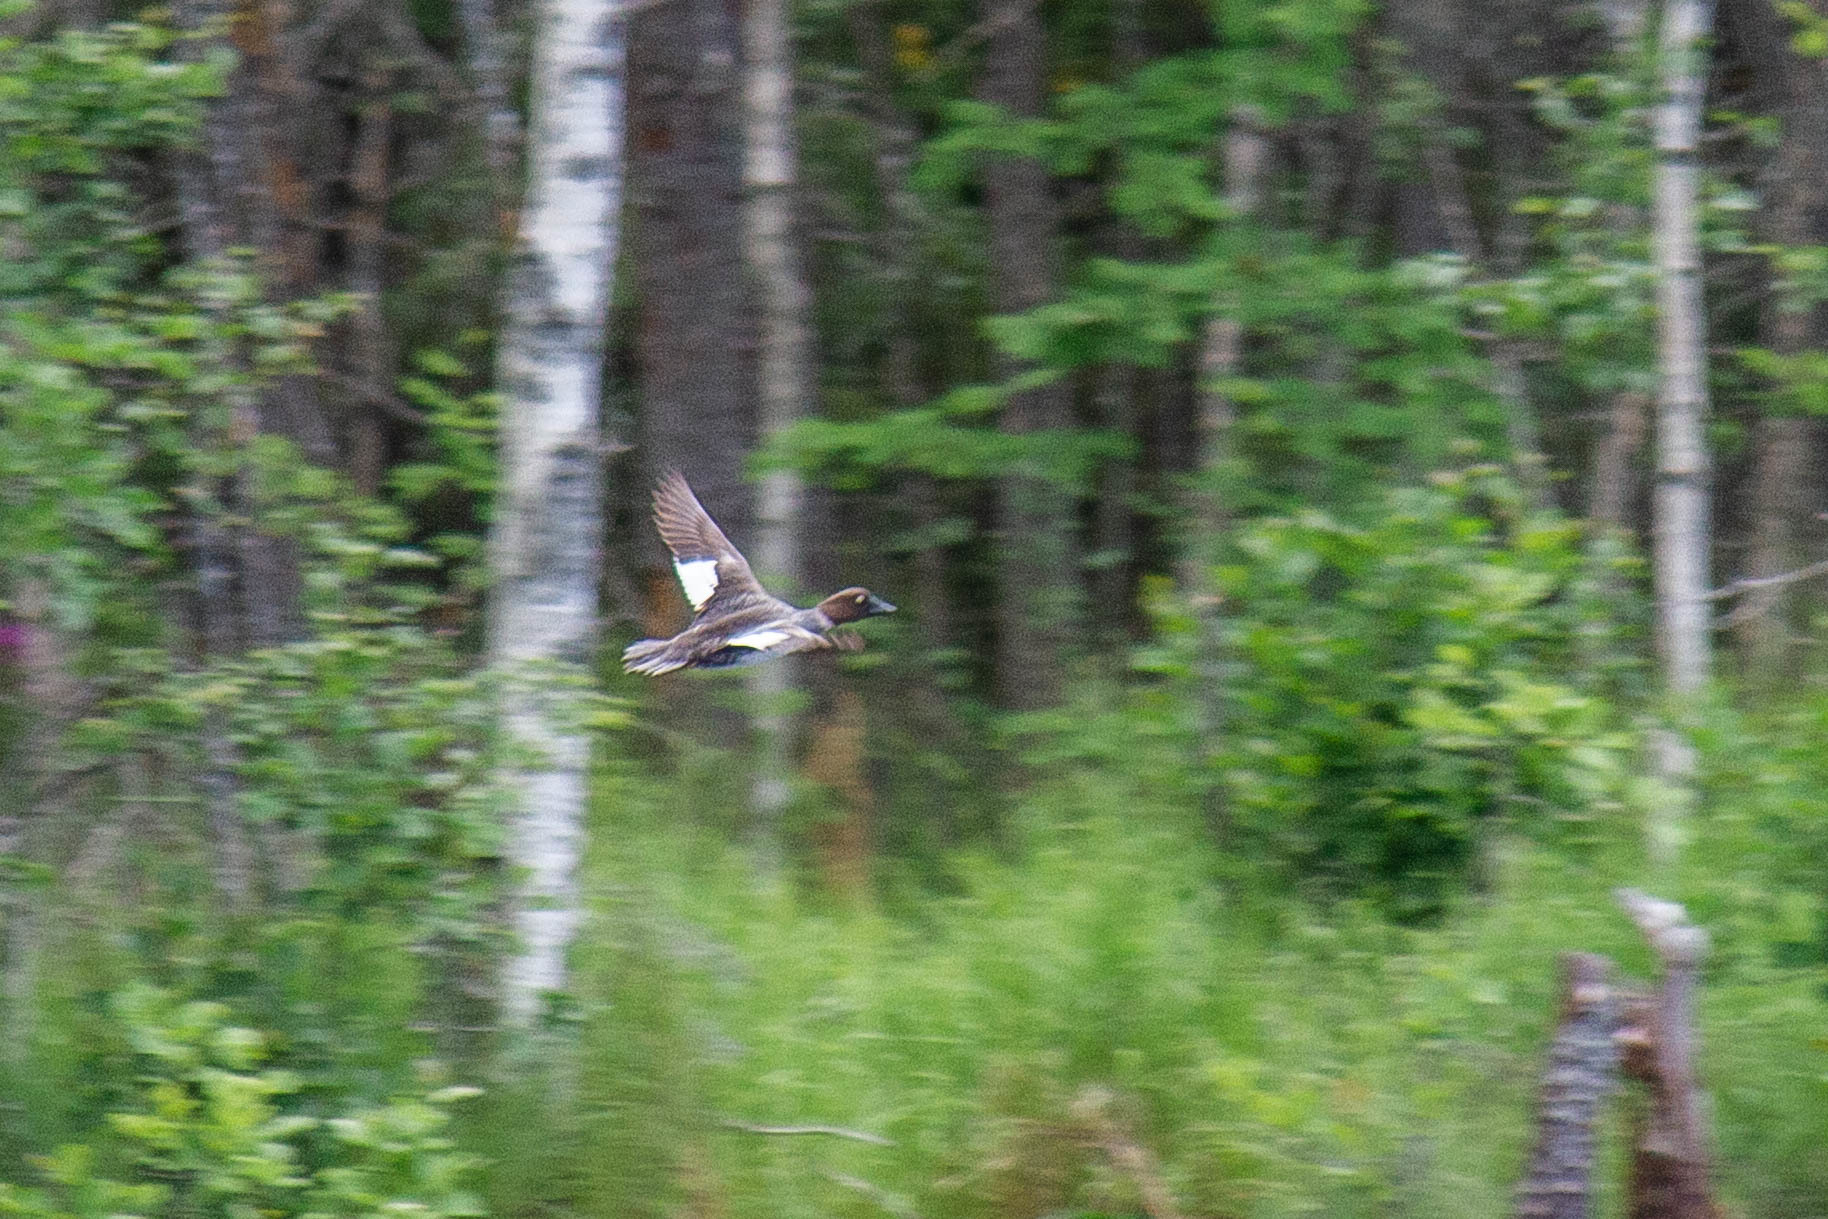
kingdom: Animalia
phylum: Chordata
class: Aves
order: Anseriformes
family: Anatidae
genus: Bucephala
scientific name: Bucephala clangula
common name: Common goldeneye
